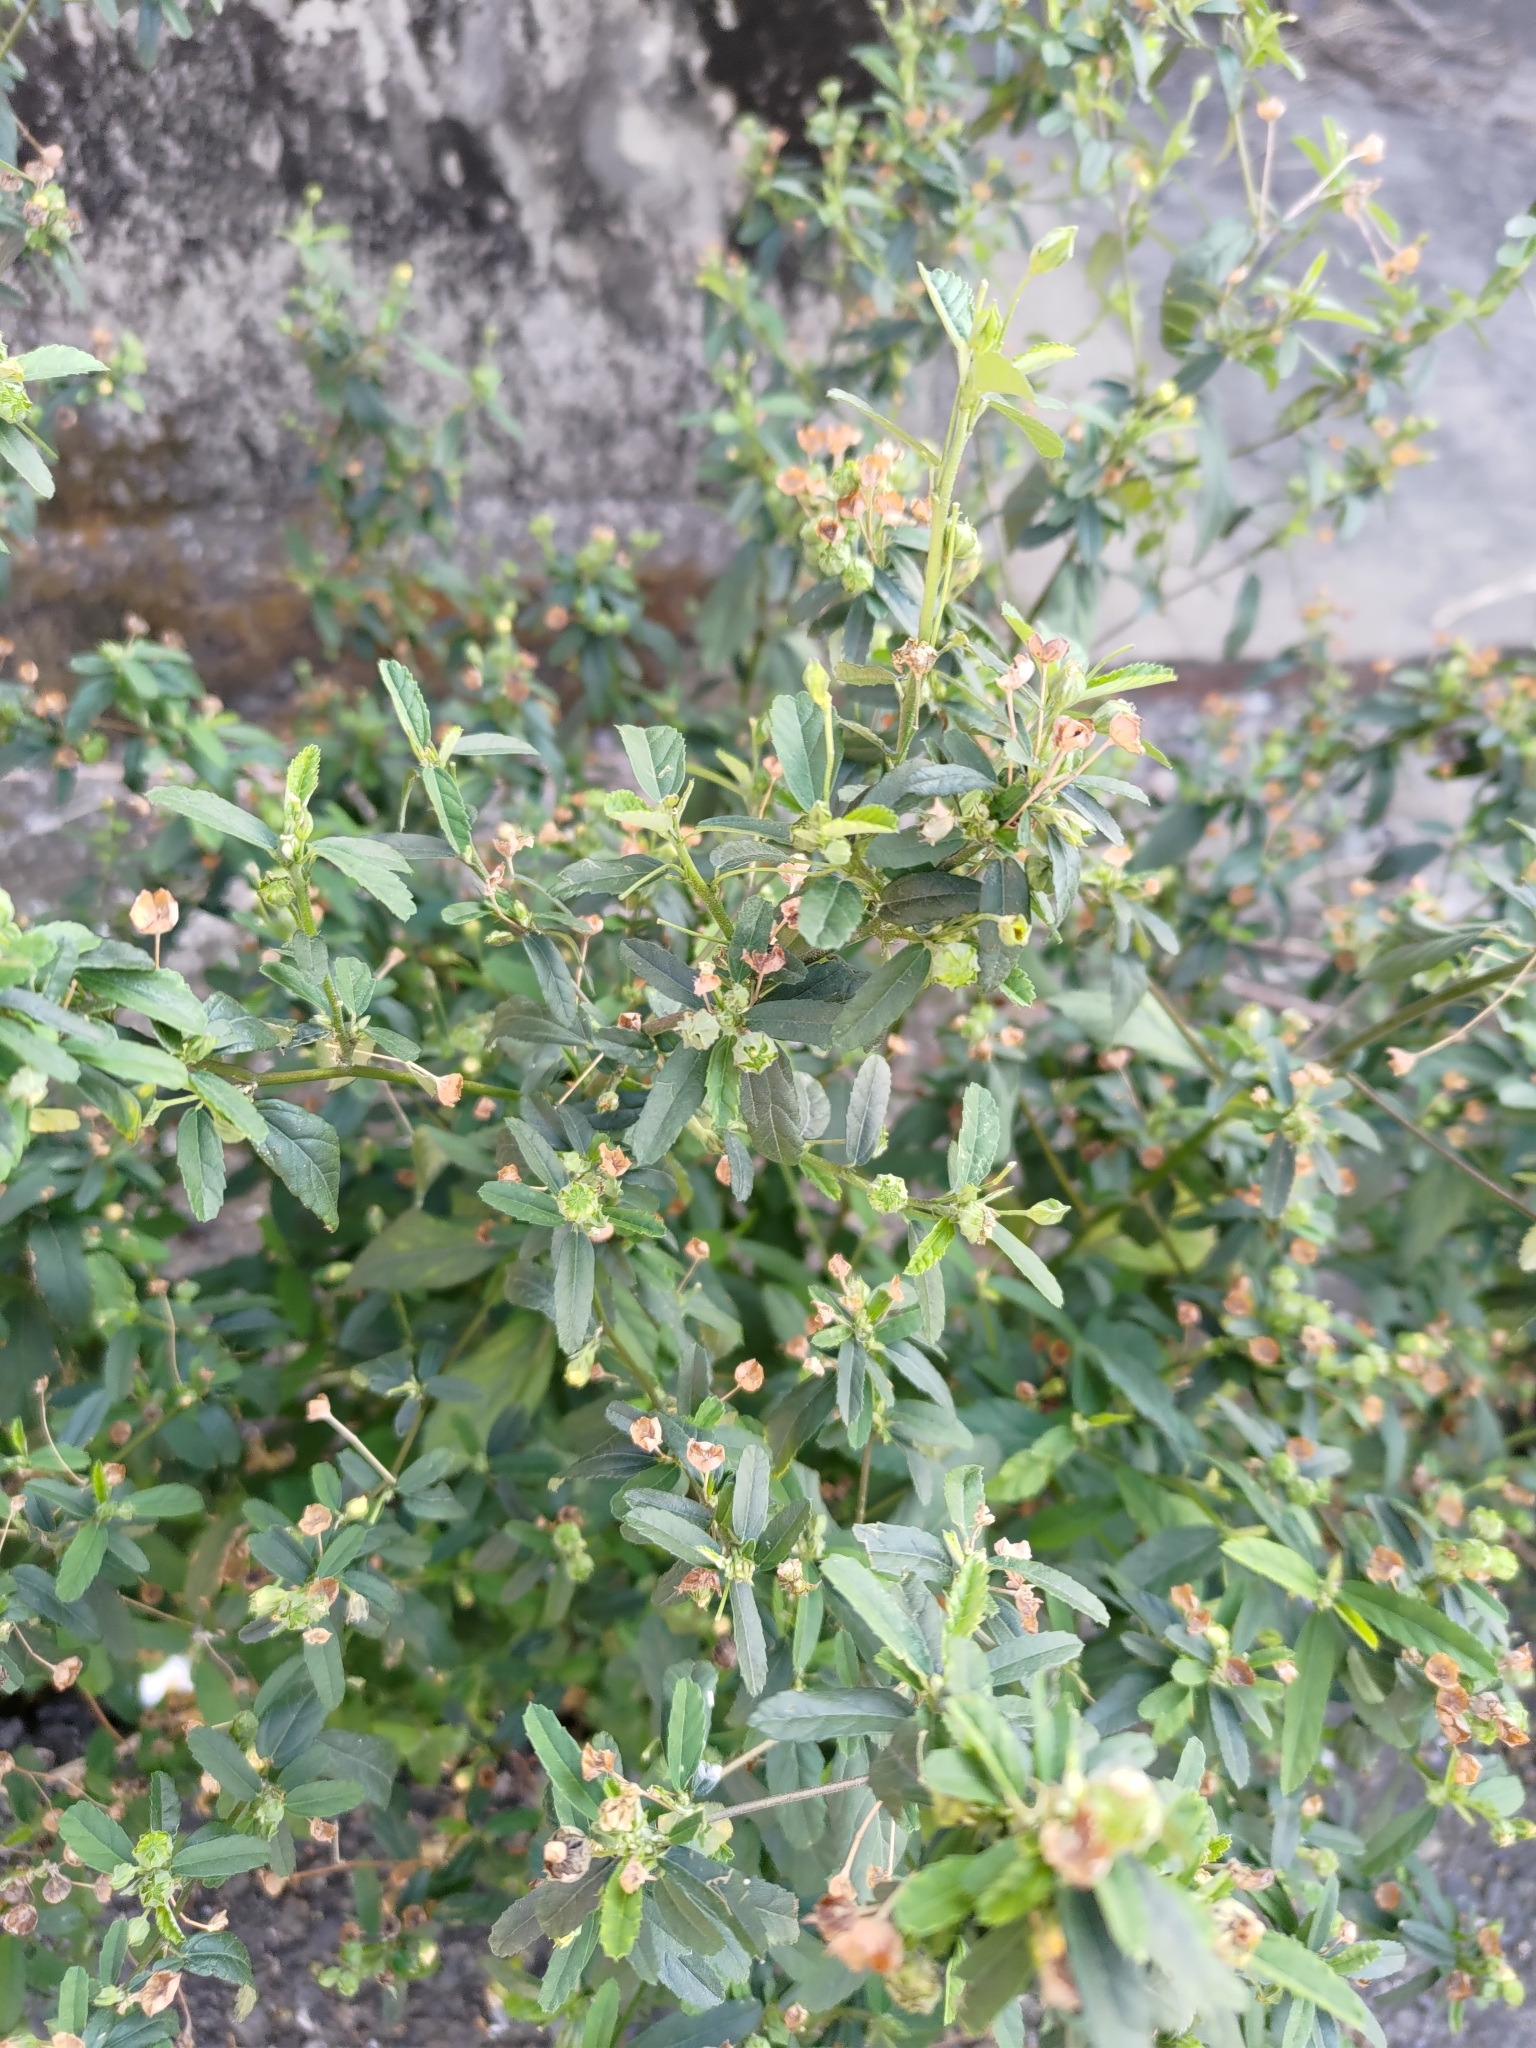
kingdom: Plantae
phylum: Tracheophyta
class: Magnoliopsida
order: Malvales
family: Malvaceae
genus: Sida
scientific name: Sida rhombifolia
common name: Queensland-hemp
